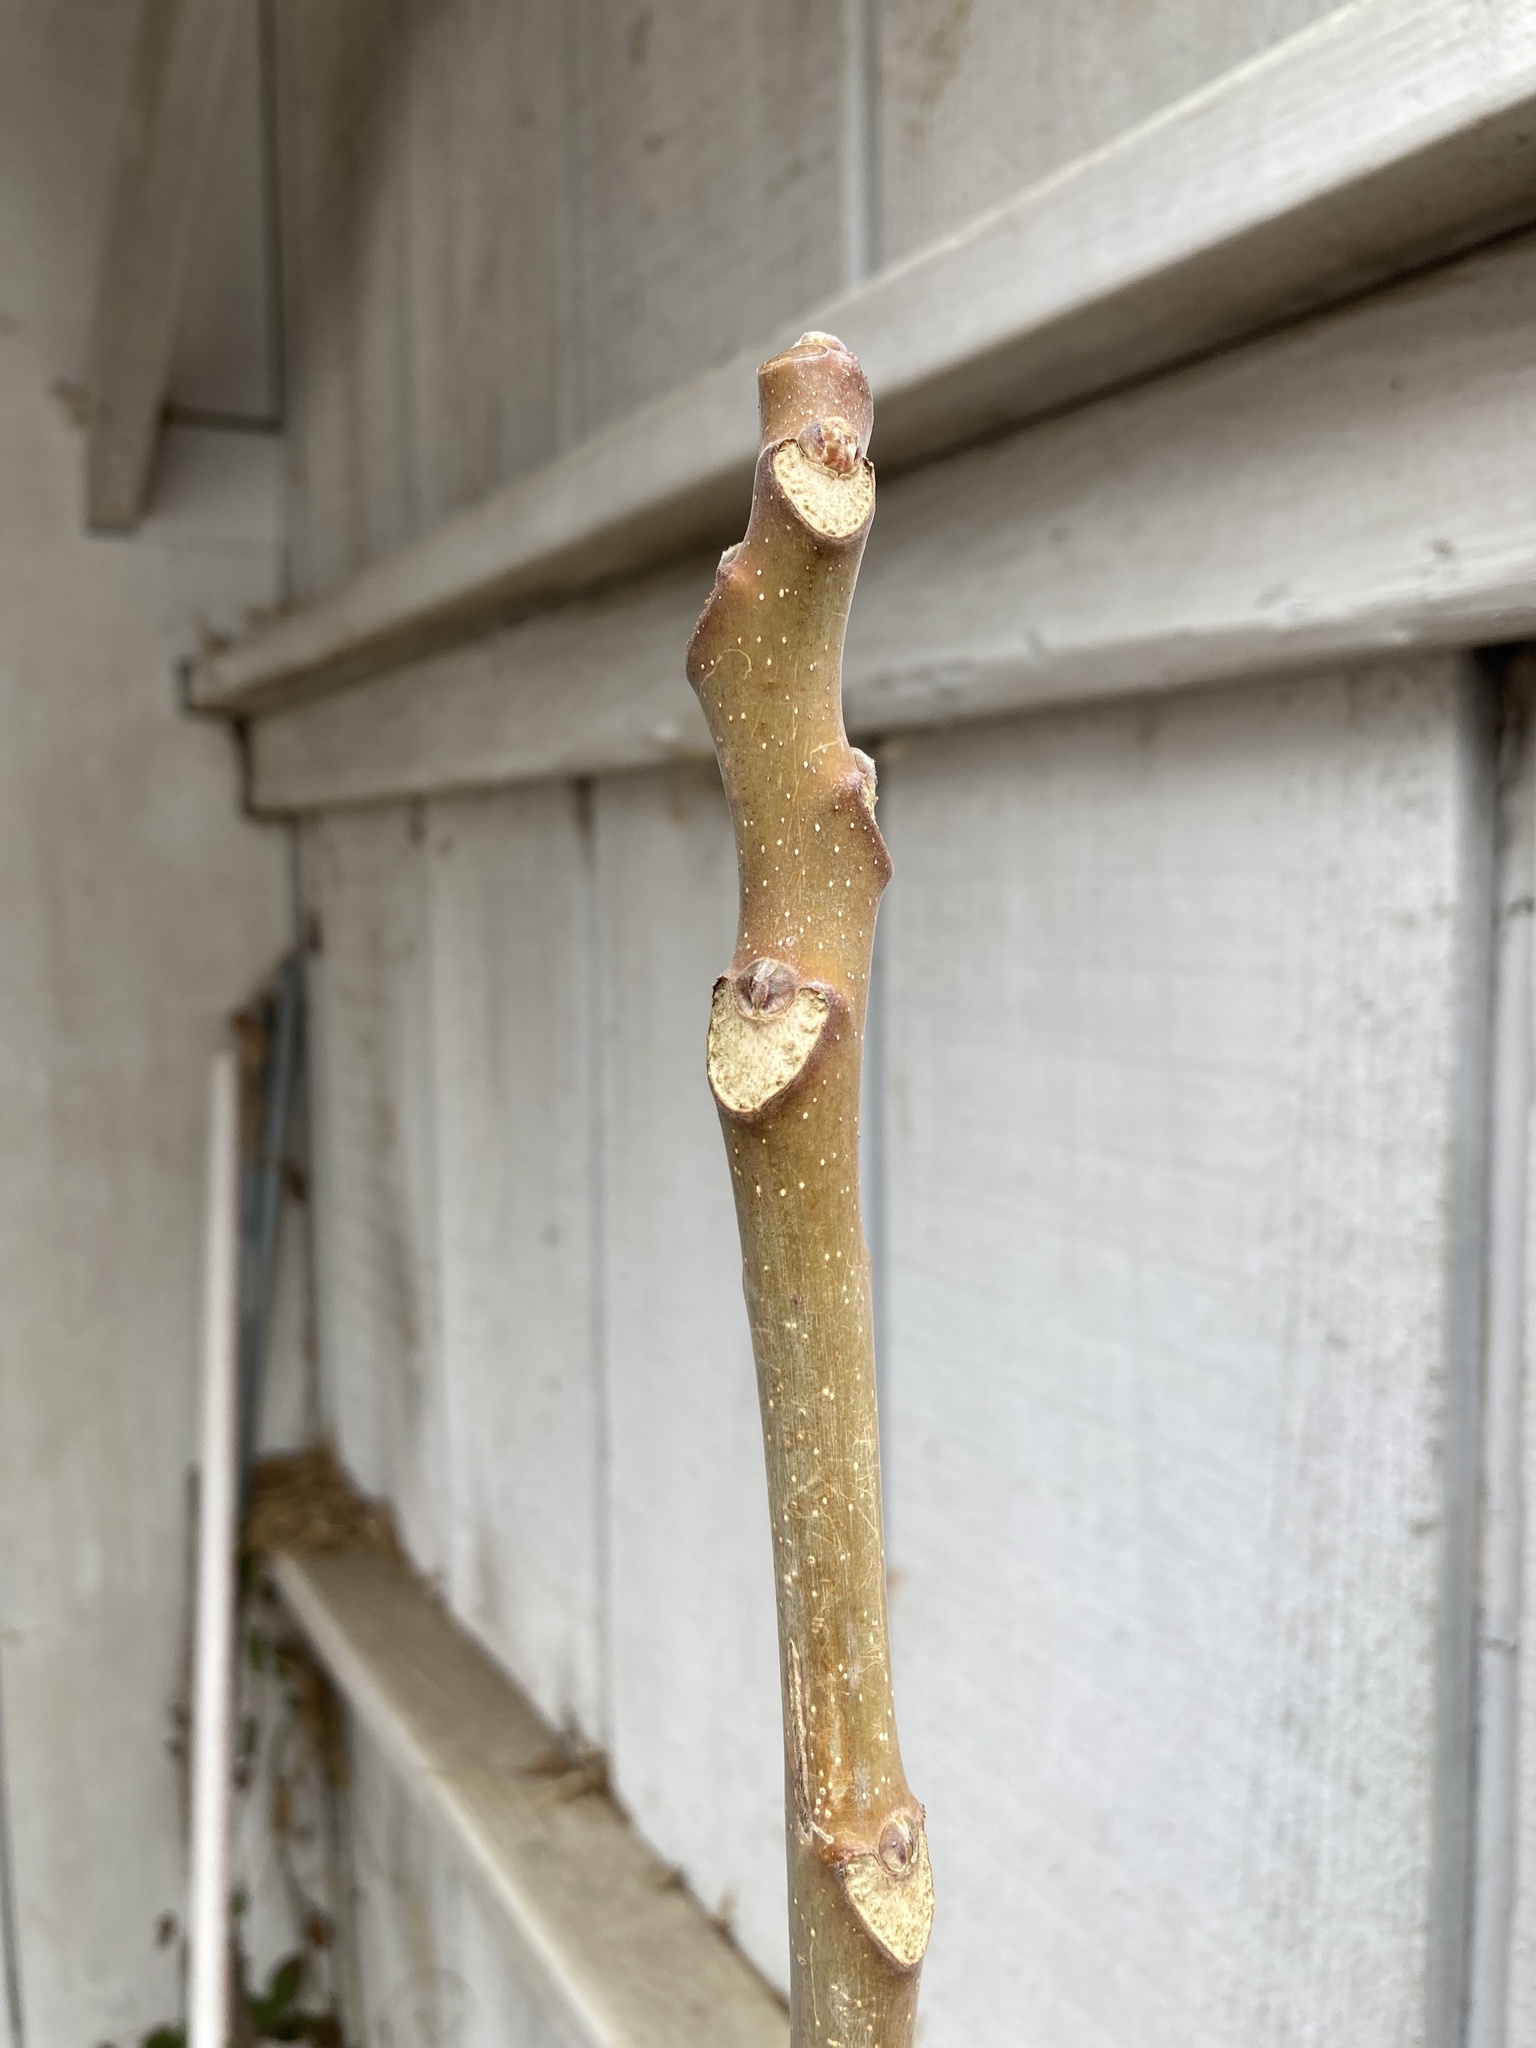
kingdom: Plantae
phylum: Tracheophyta
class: Magnoliopsida
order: Sapindales
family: Simaroubaceae
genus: Ailanthus
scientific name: Ailanthus altissima
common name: Tree-of-heaven
